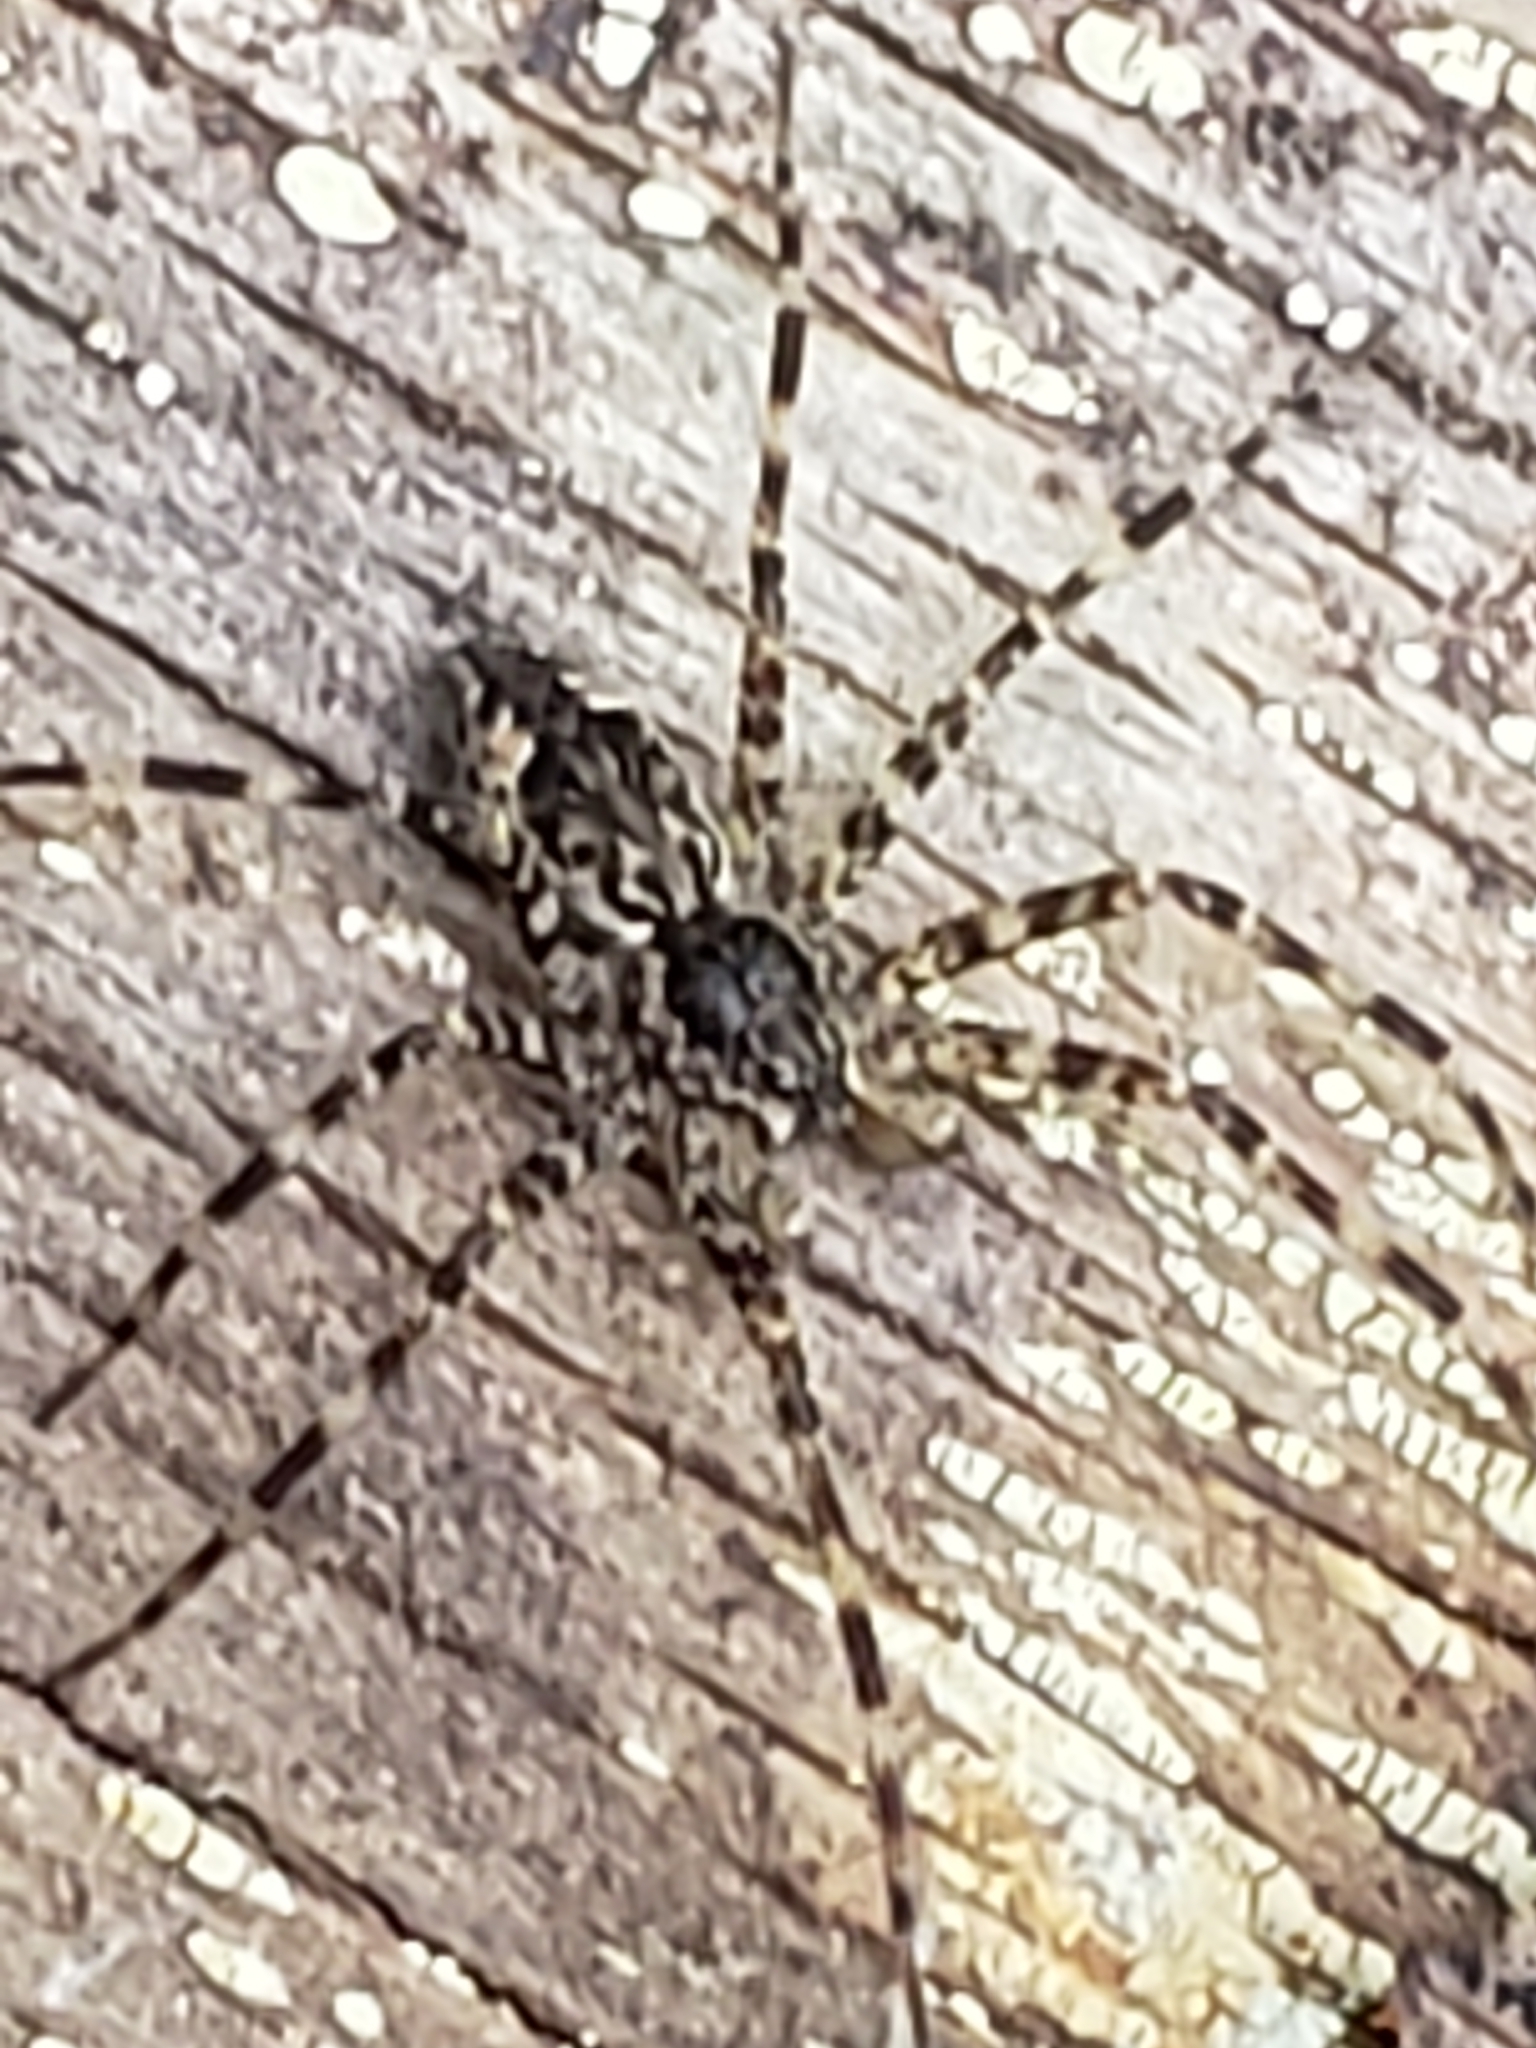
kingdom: Animalia
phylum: Arthropoda
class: Arachnida
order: Araneae
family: Pisauridae
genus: Dolomedes
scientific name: Dolomedes tenebrosus
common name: Dark fishing spider
